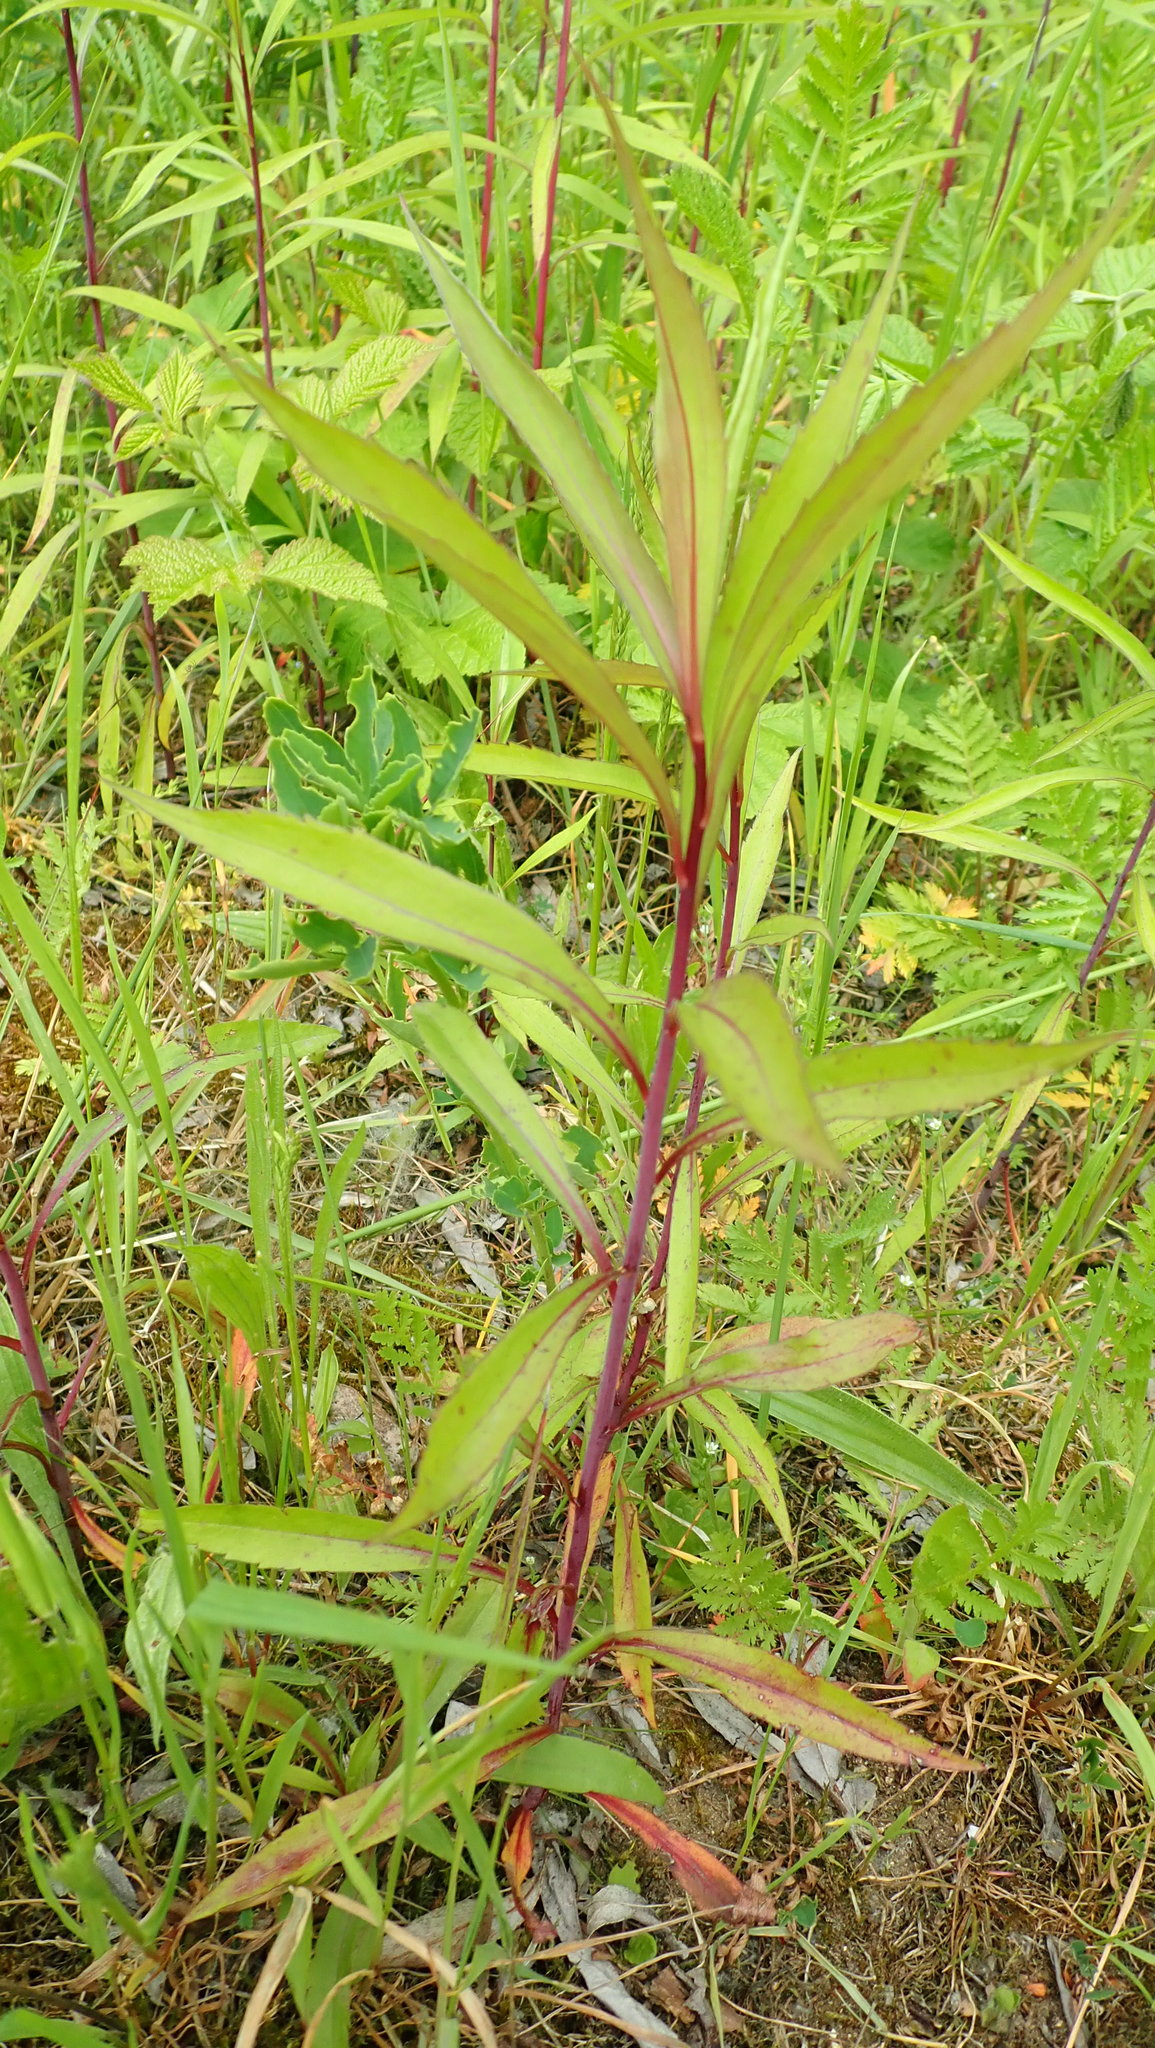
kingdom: Plantae
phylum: Tracheophyta
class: Magnoliopsida
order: Myrtales
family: Onagraceae
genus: Chamaenerion
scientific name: Chamaenerion angustifolium
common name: Fireweed
